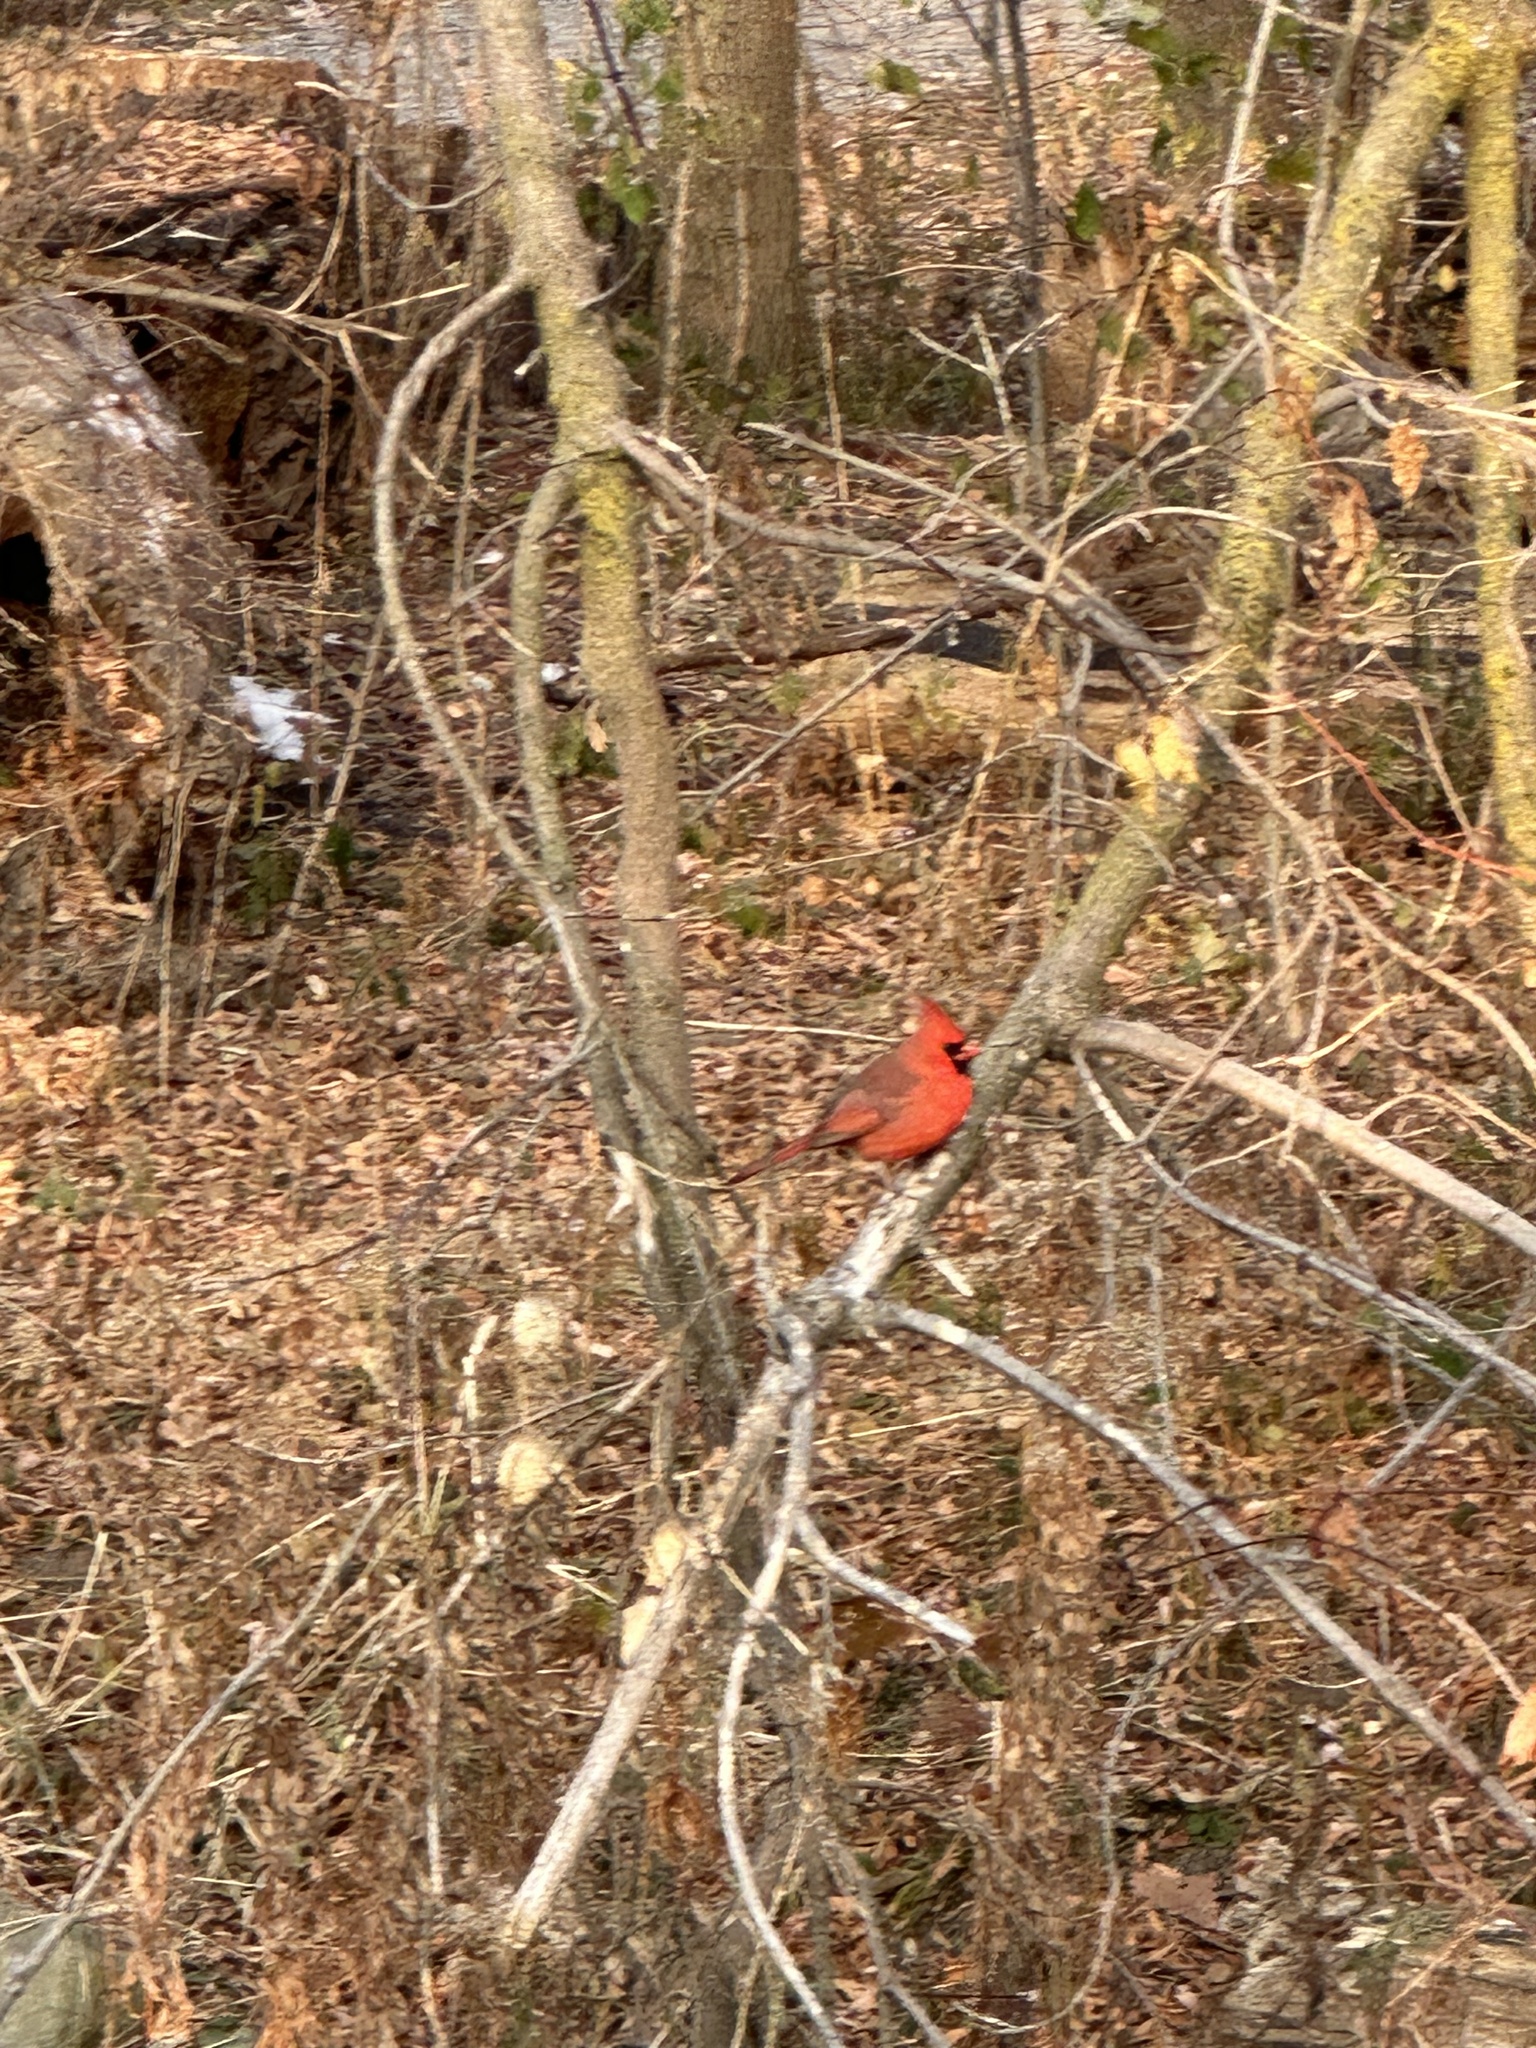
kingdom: Animalia
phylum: Chordata
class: Aves
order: Passeriformes
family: Cardinalidae
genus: Cardinalis
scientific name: Cardinalis cardinalis
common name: Northern cardinal
